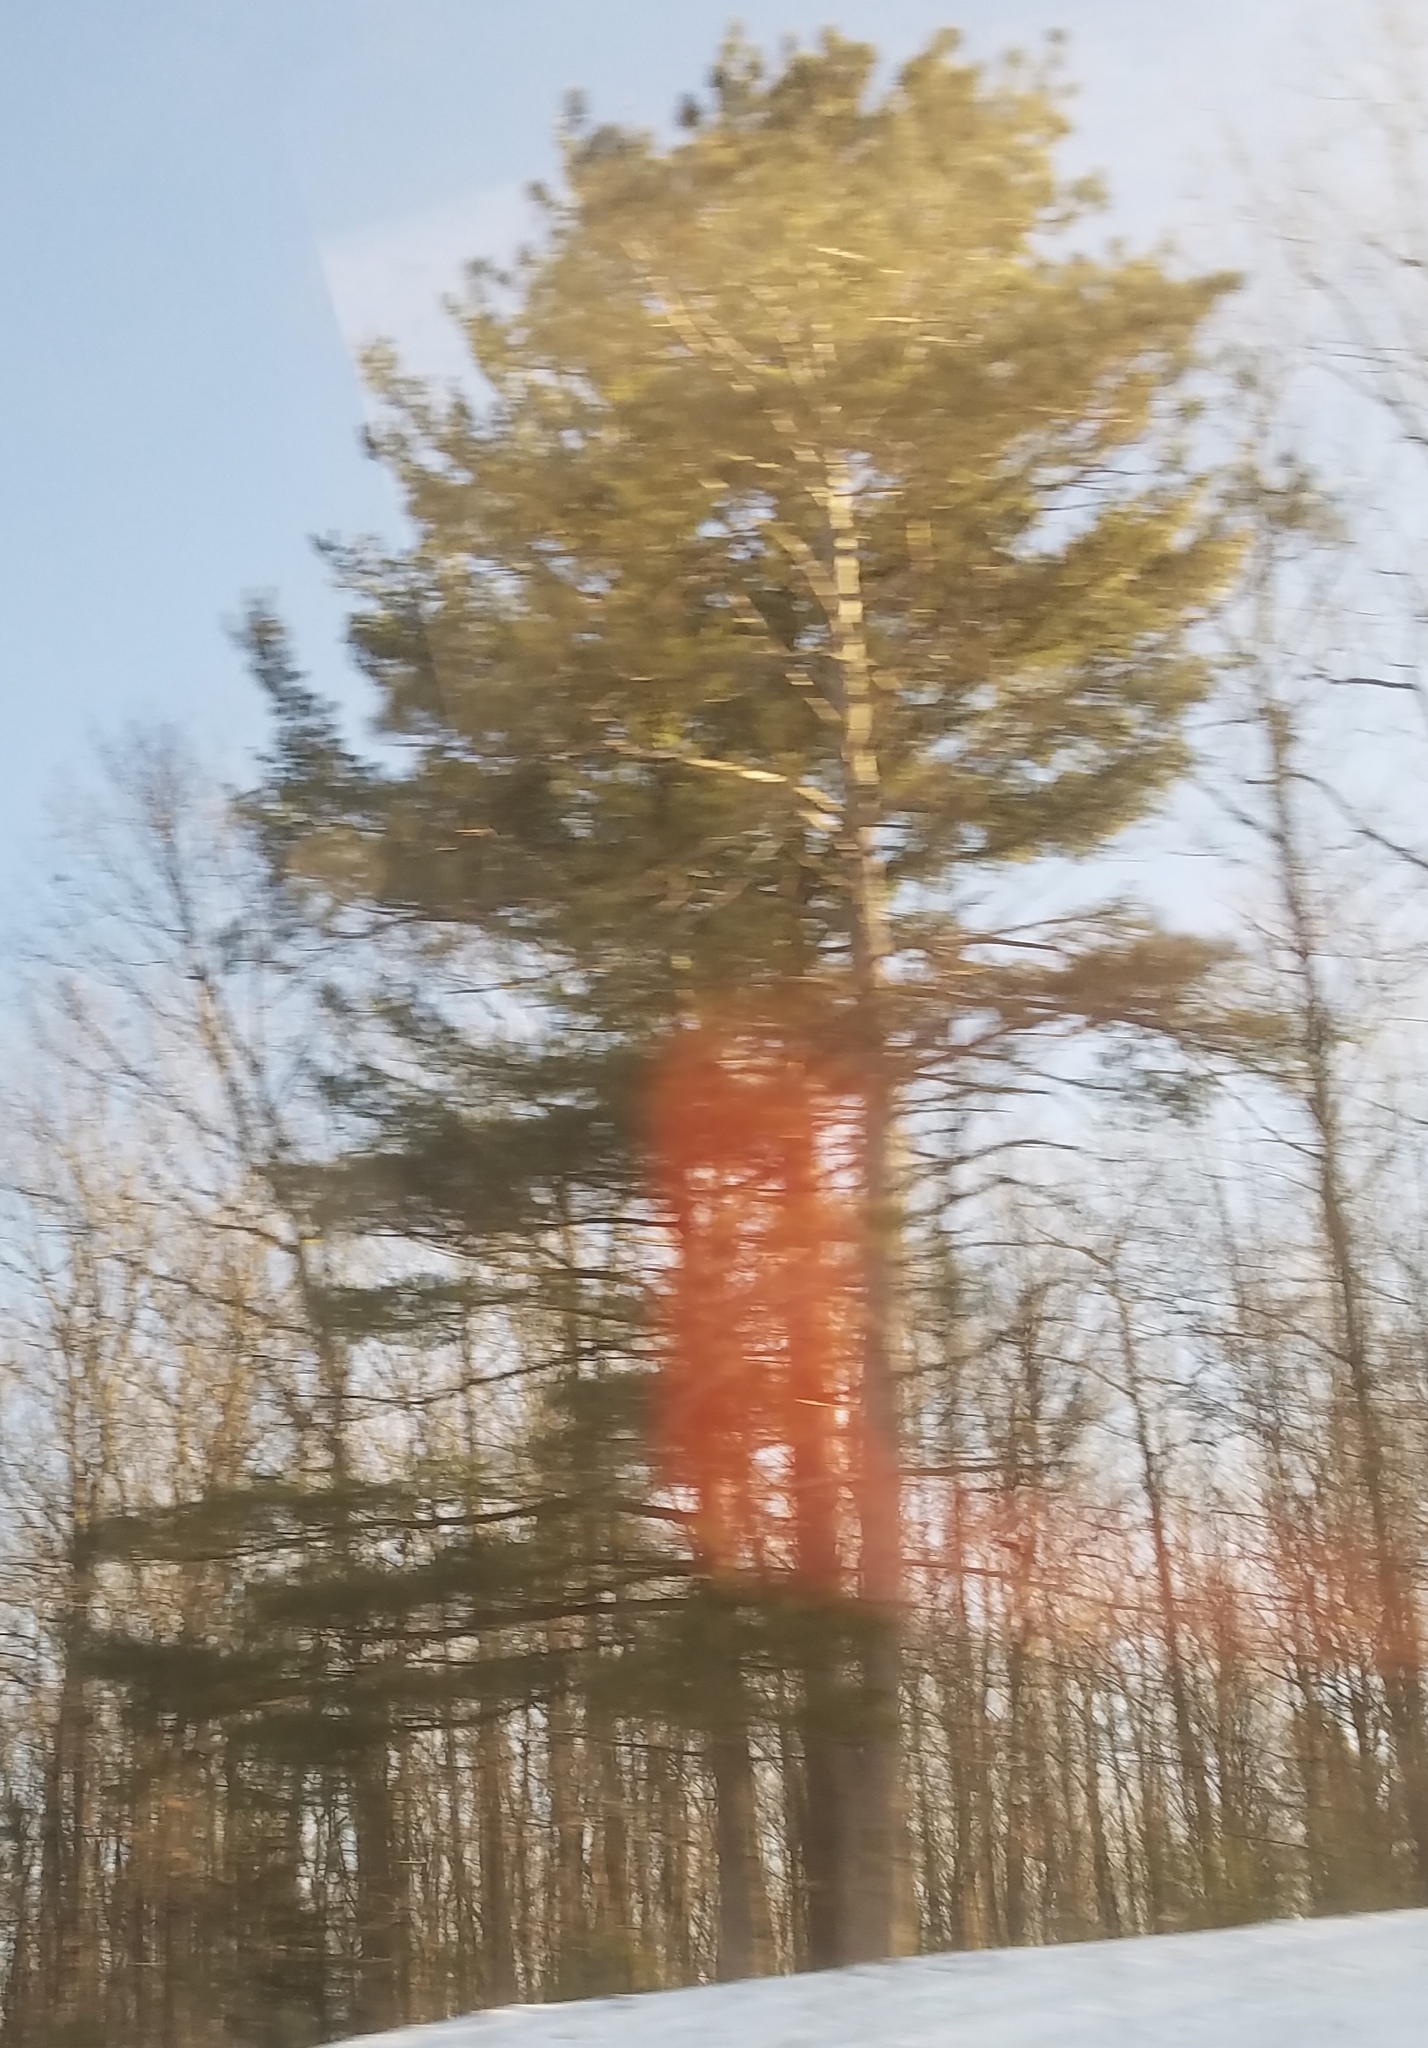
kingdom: Plantae
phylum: Tracheophyta
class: Pinopsida
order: Pinales
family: Pinaceae
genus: Pinus
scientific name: Pinus strobus
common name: Weymouth pine
